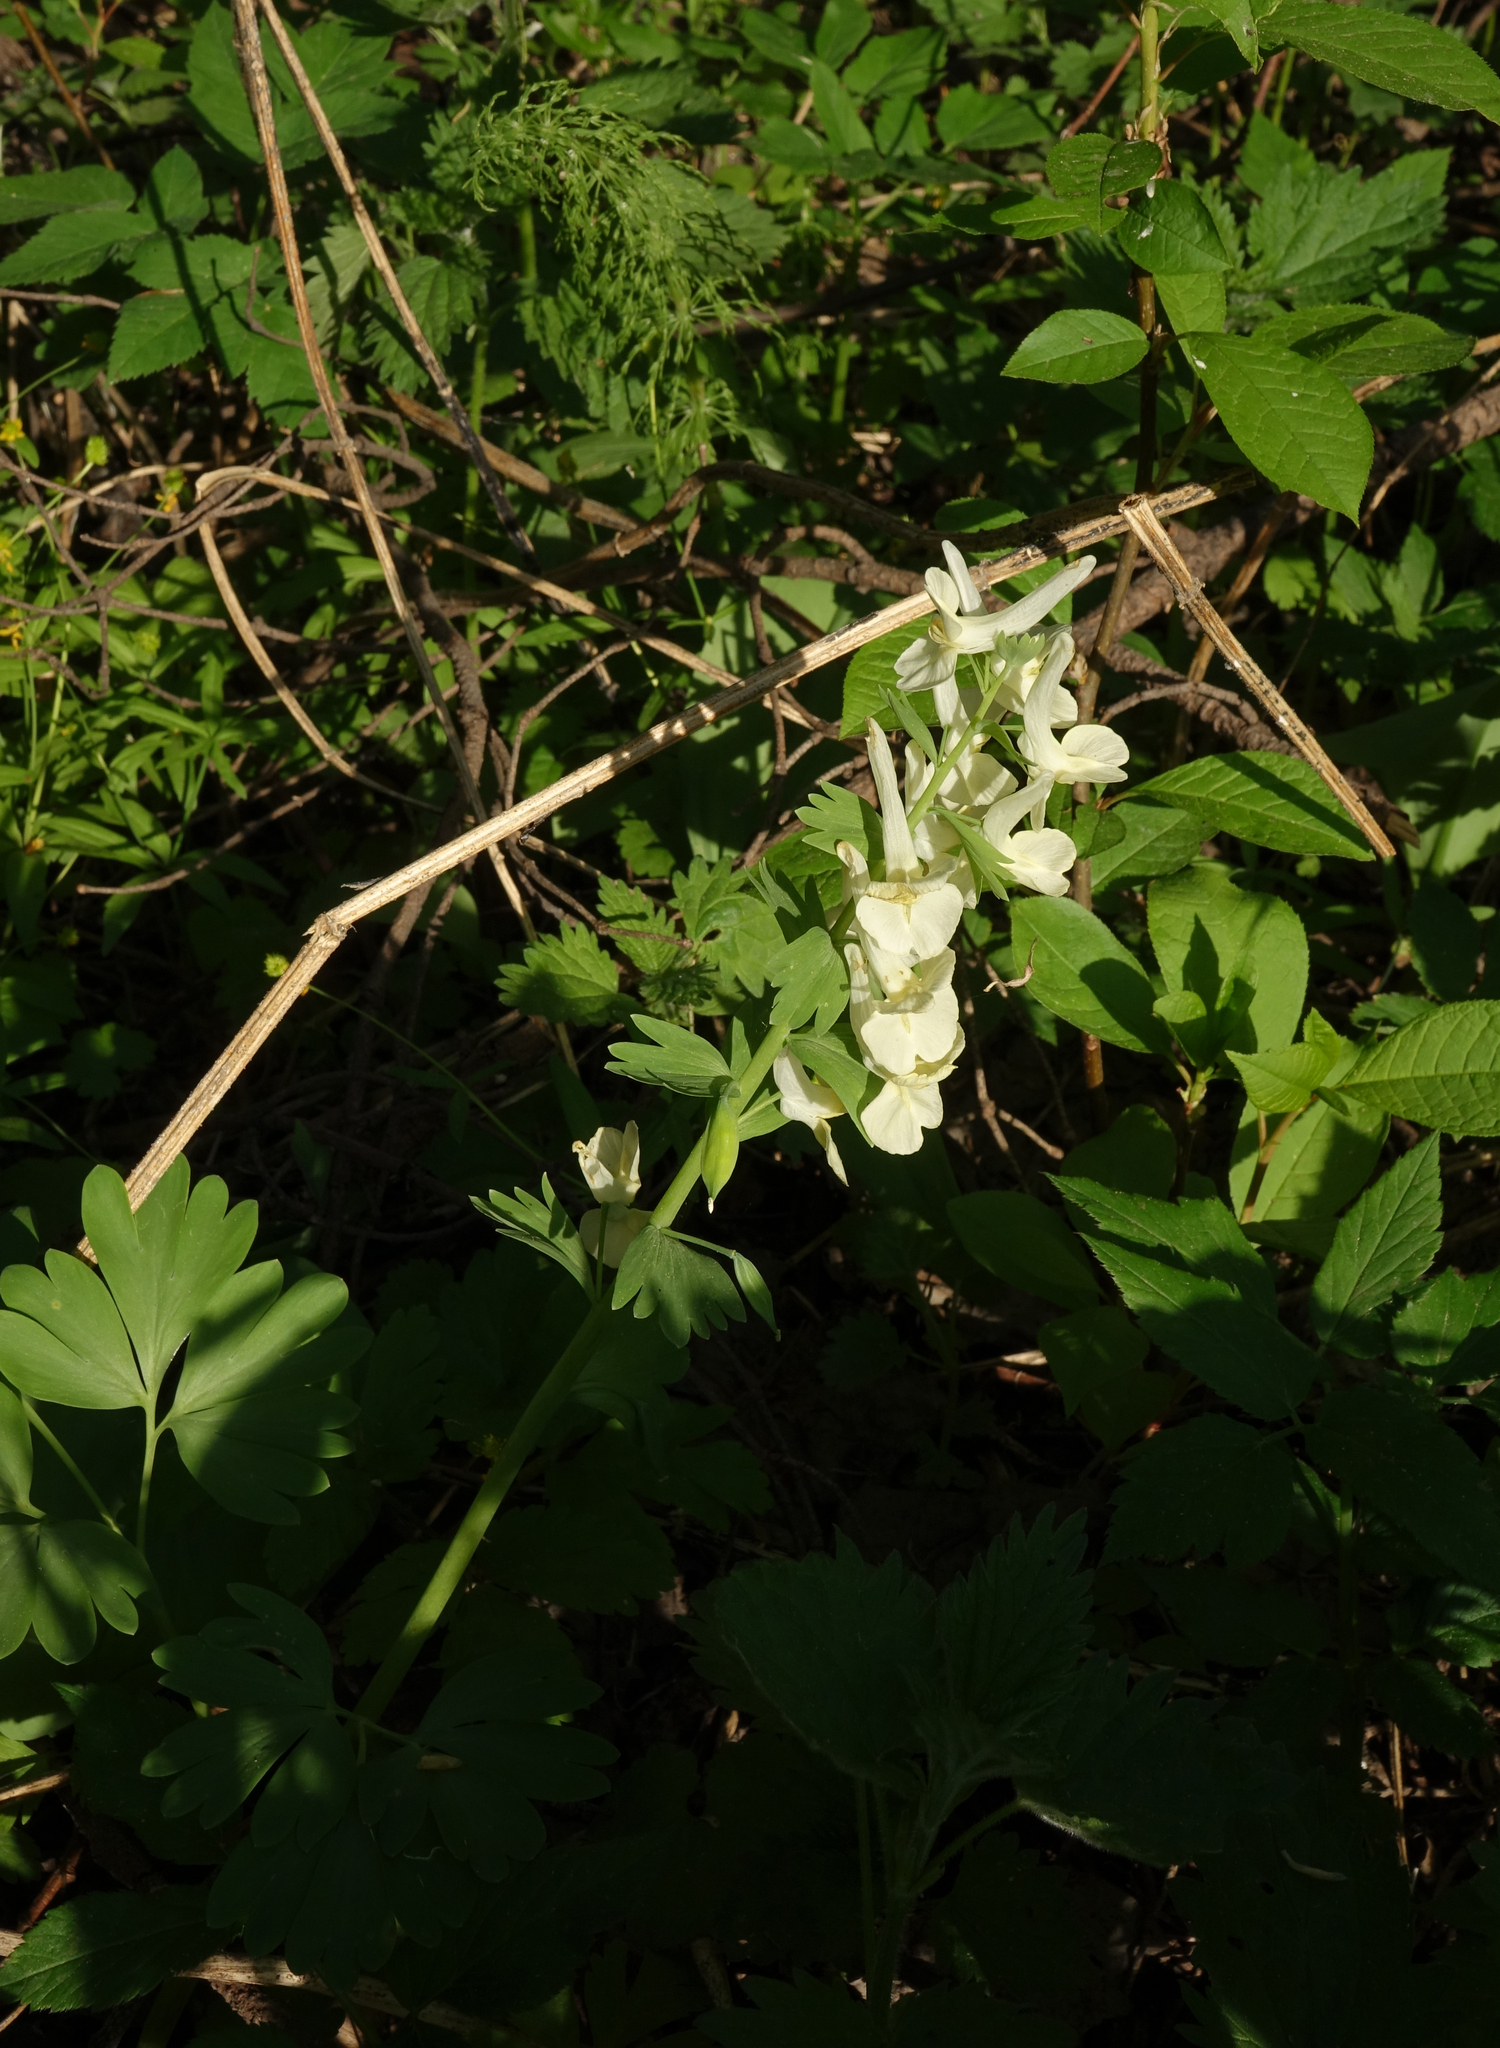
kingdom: Plantae
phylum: Tracheophyta
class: Magnoliopsida
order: Ranunculales
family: Papaveraceae
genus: Corydalis
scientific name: Corydalis bracteata
